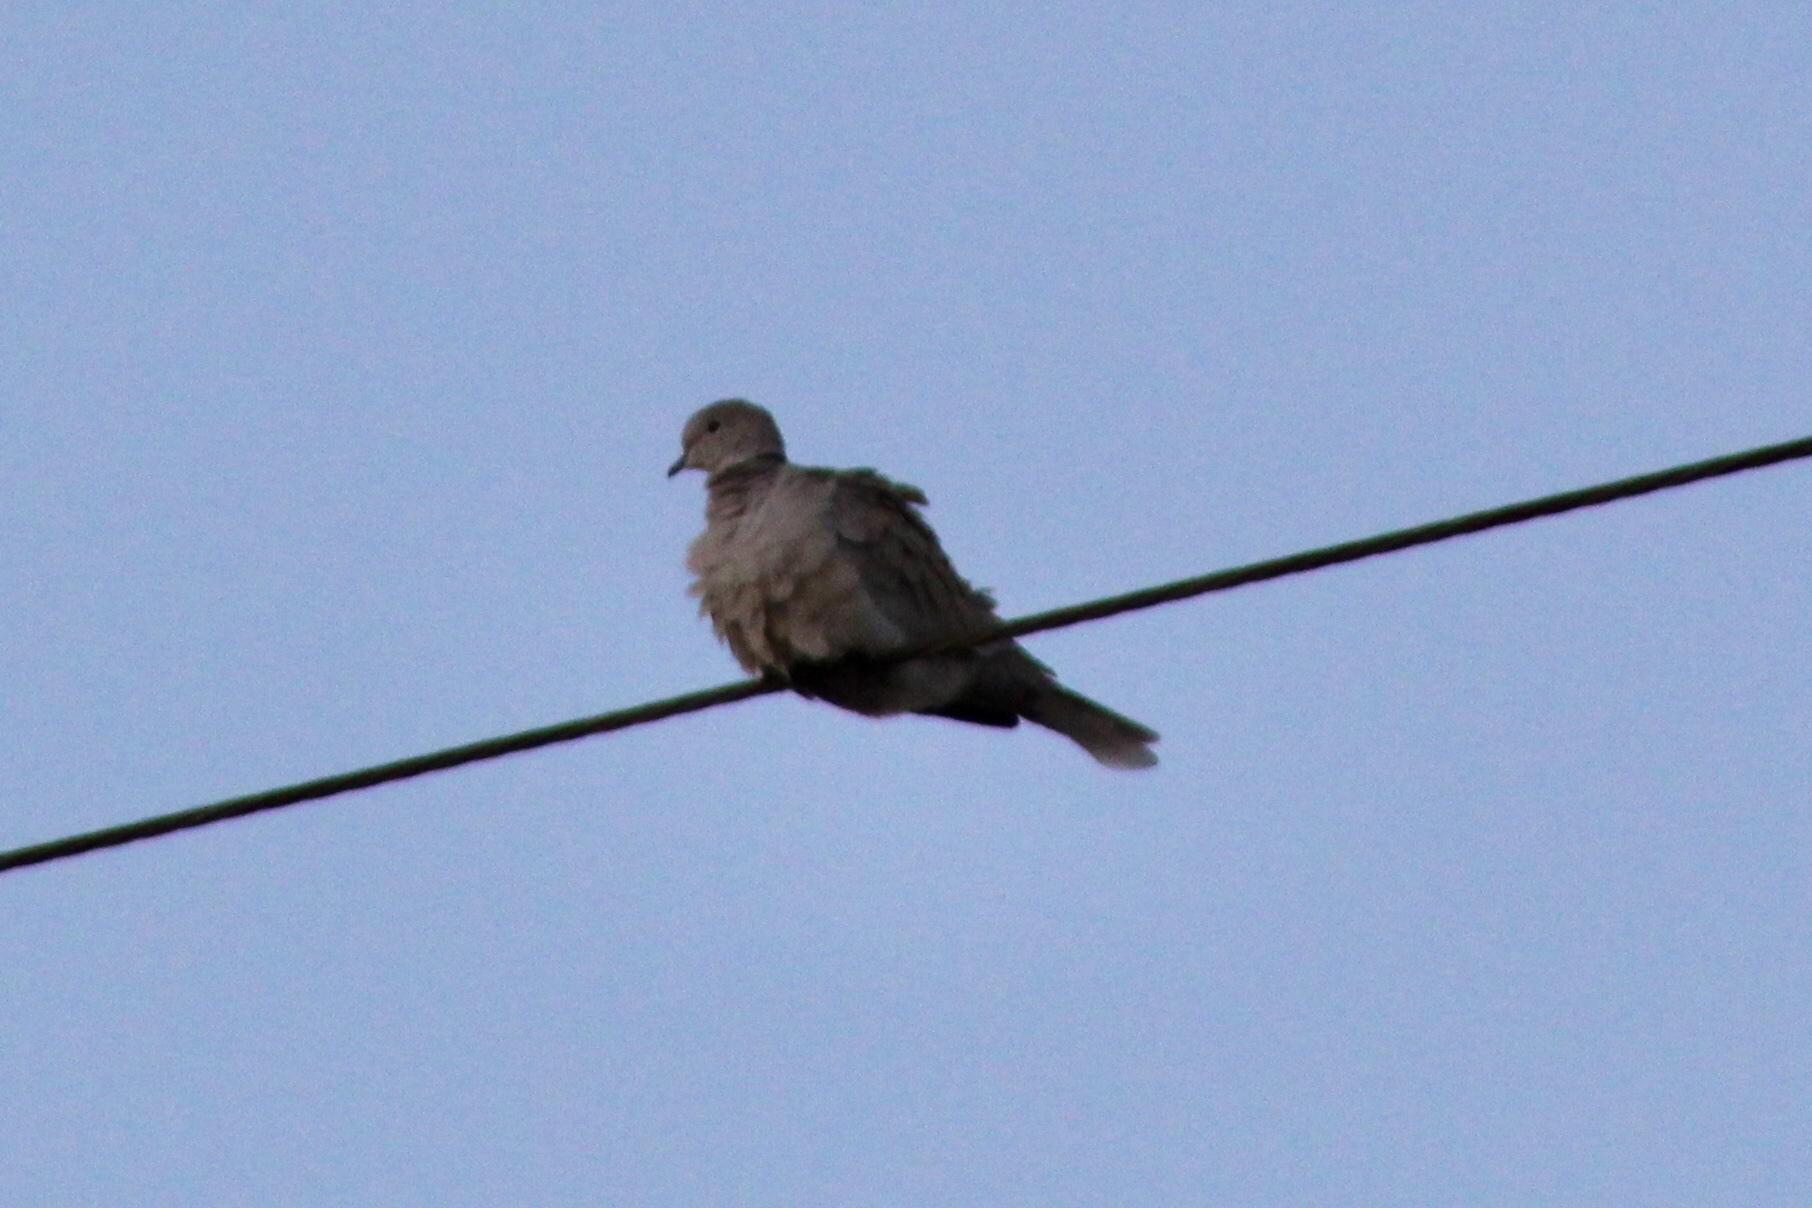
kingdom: Animalia
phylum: Chordata
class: Aves
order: Columbiformes
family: Columbidae
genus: Streptopelia
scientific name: Streptopelia decaocto
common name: Eurasian collared dove
